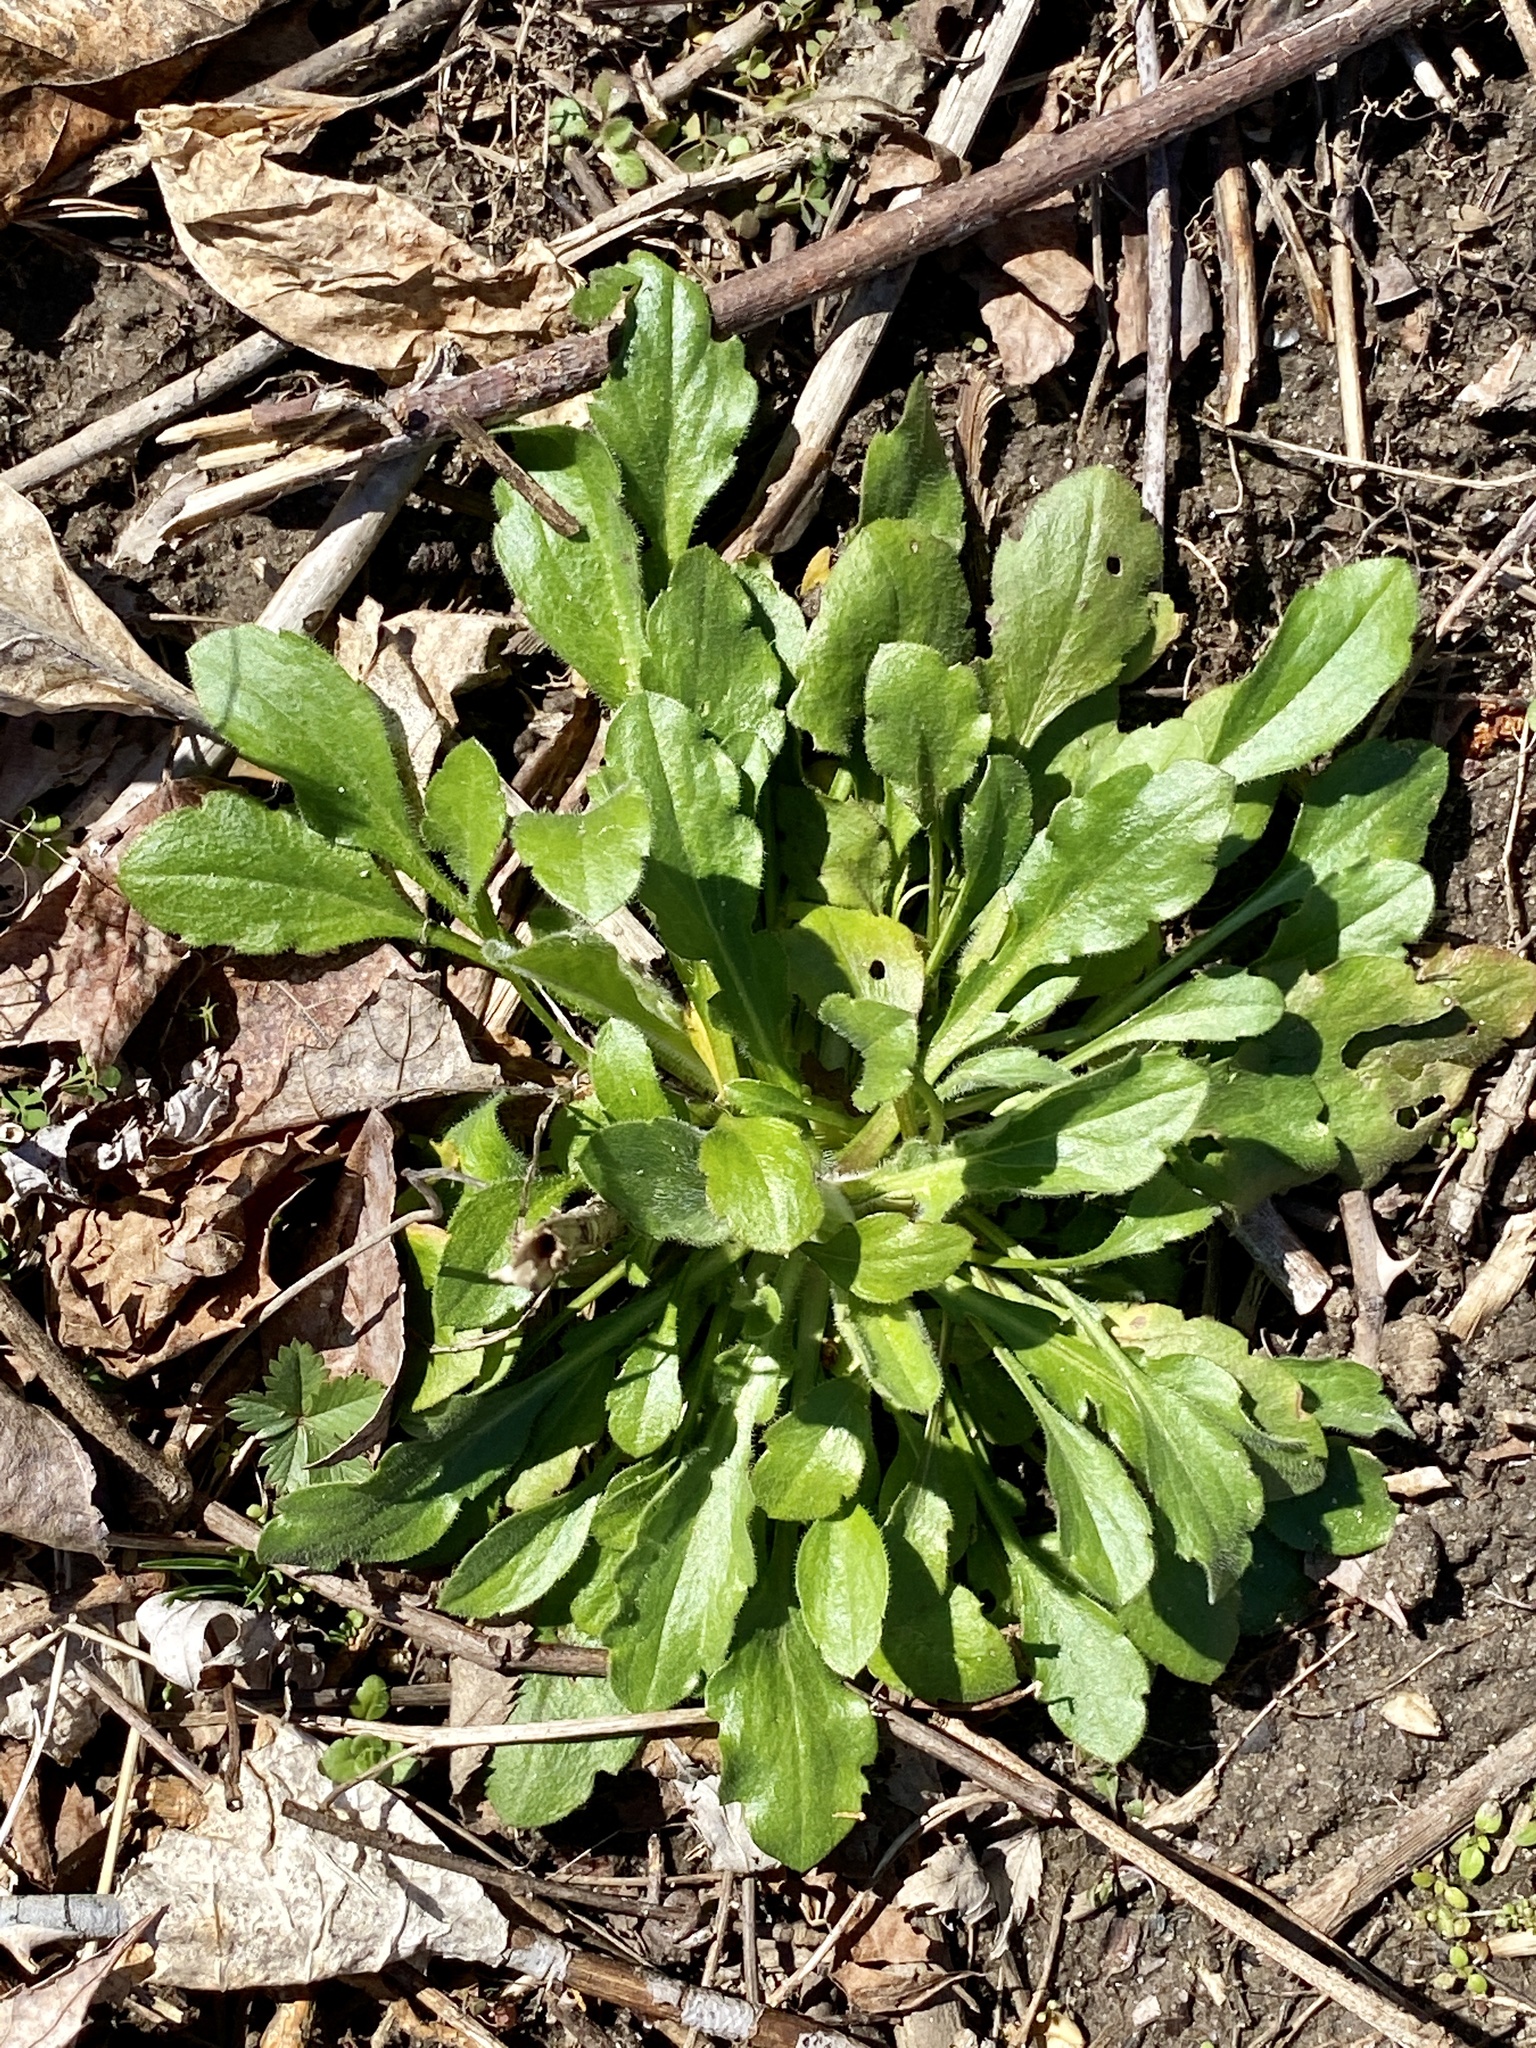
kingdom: Plantae
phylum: Tracheophyta
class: Magnoliopsida
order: Asterales
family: Asteraceae
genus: Erigeron
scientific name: Erigeron canadensis
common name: Canadian fleabane
